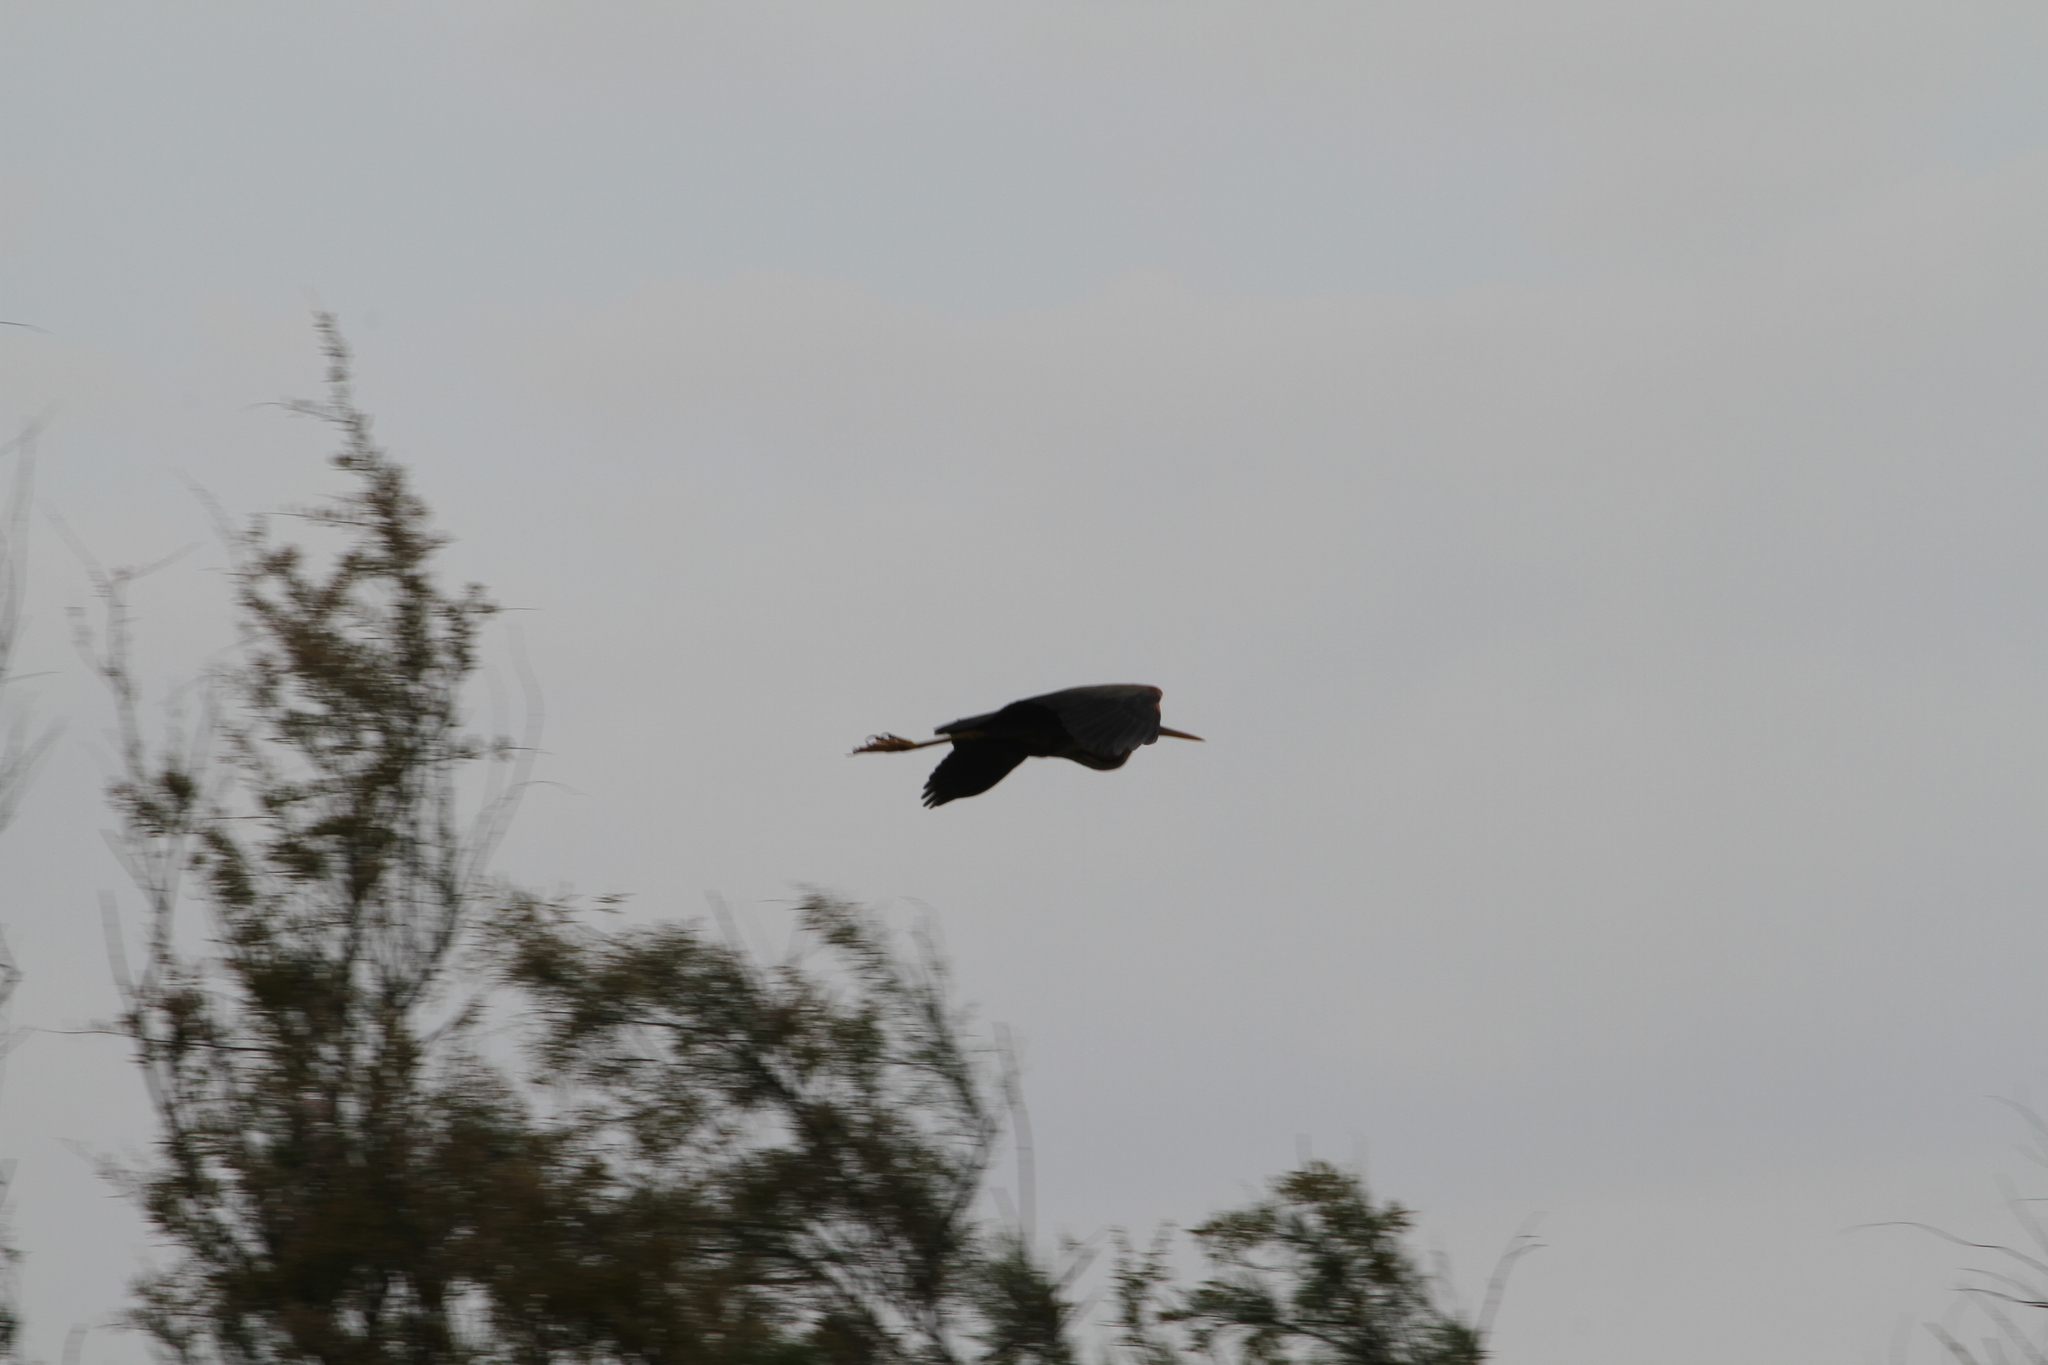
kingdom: Animalia
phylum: Chordata
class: Aves
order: Pelecaniformes
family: Ardeidae
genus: Ardea
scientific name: Ardea purpurea
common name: Purple heron
